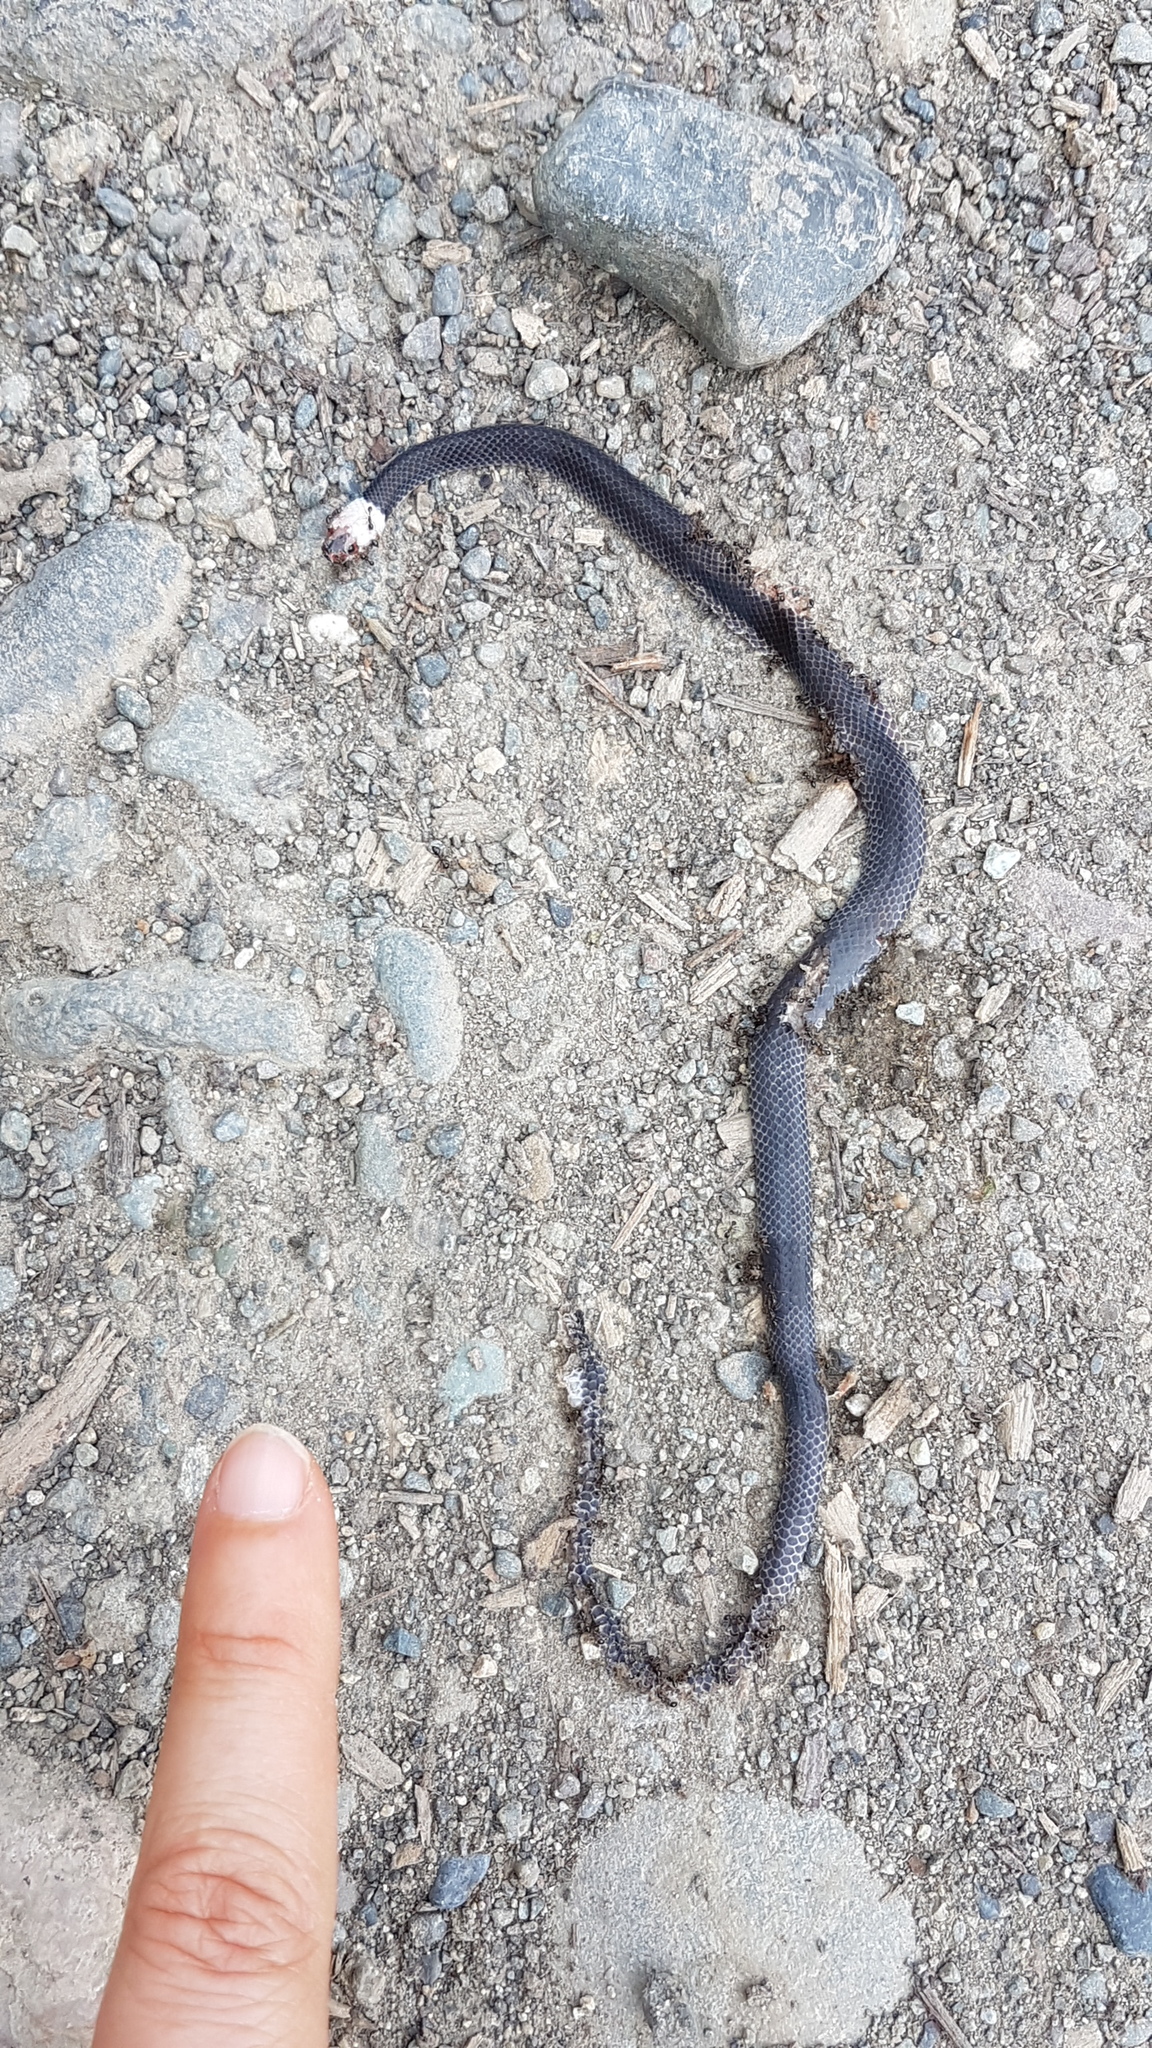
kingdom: Animalia
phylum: Chordata
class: Squamata
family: Colubridae
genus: Enuliophis
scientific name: Enuliophis sclateri
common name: Colombian longtail snake
